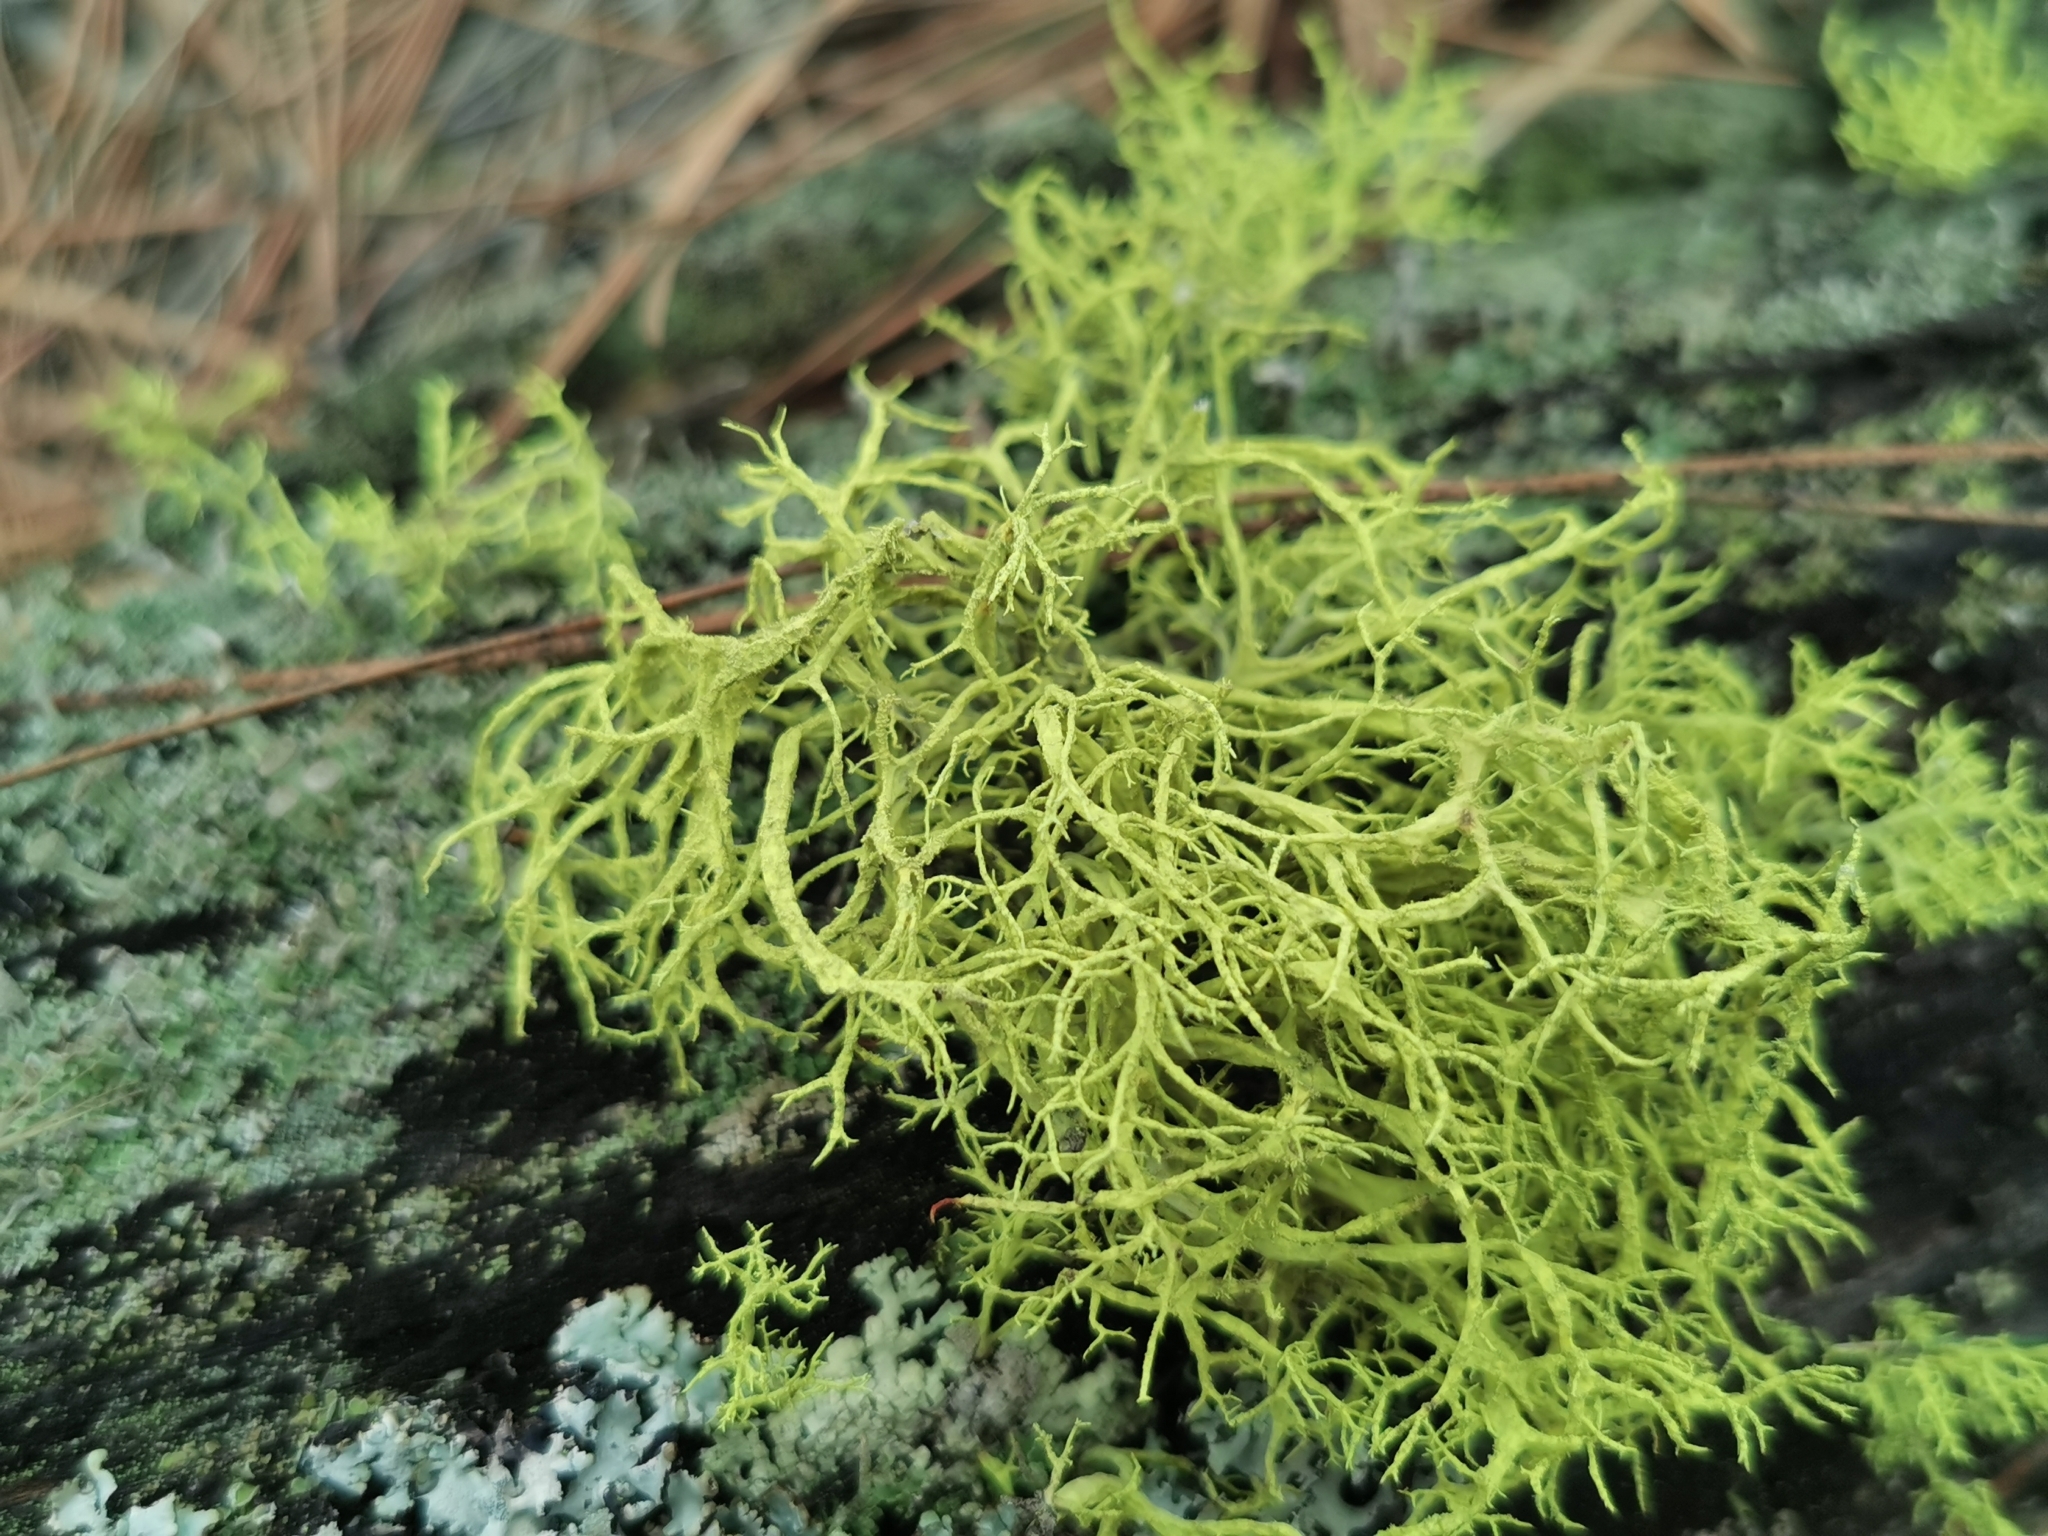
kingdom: Fungi
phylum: Ascomycota
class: Lecanoromycetes
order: Lecanorales
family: Parmeliaceae
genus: Letharia
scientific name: Letharia vulpina
